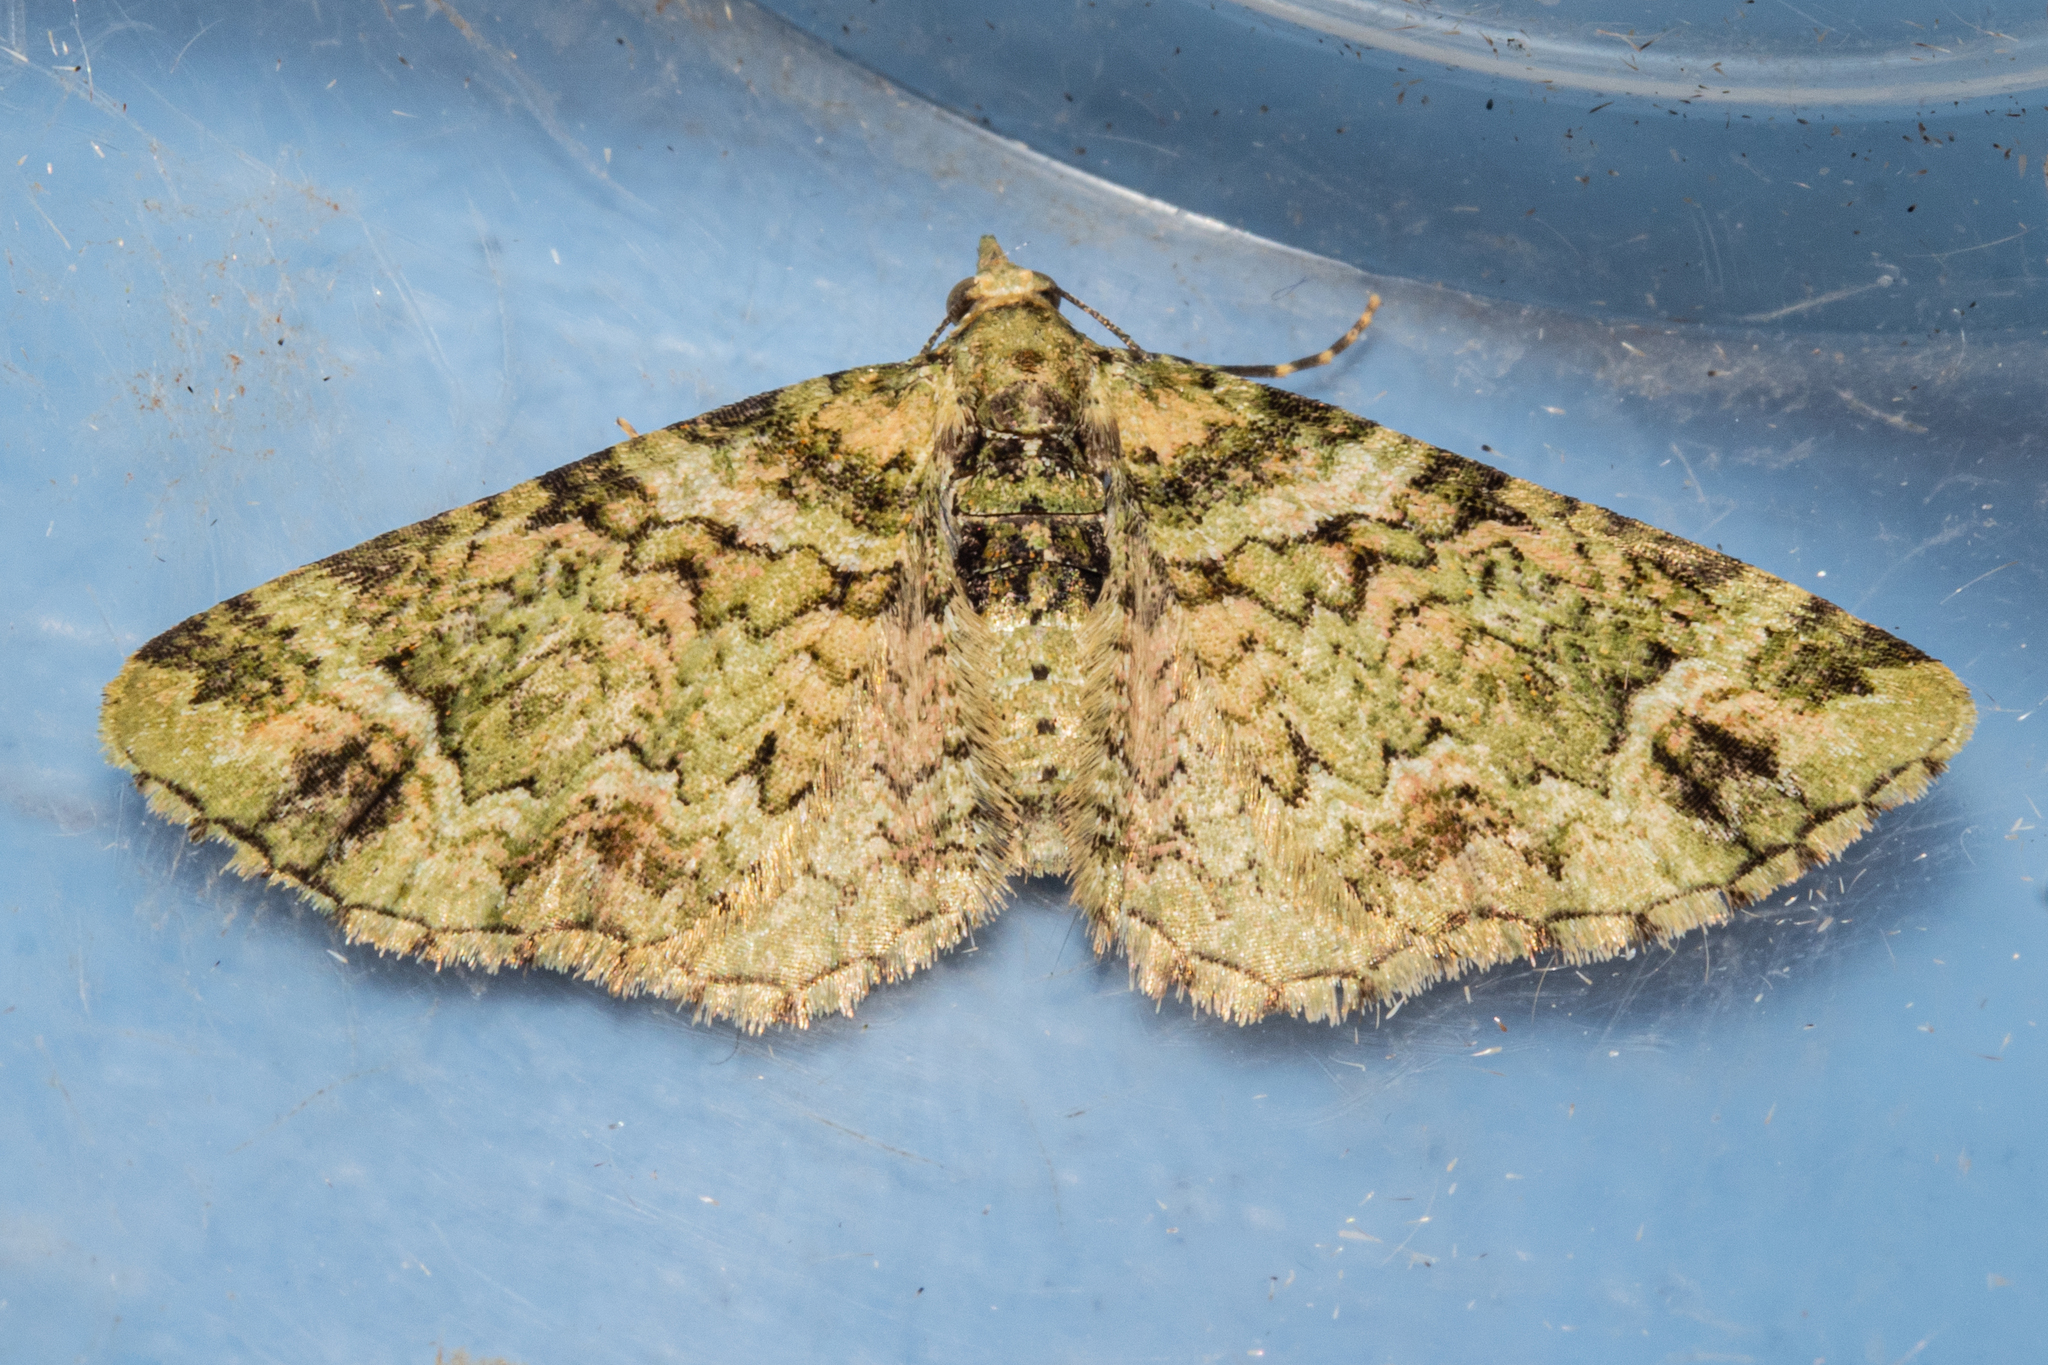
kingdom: Animalia
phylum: Arthropoda
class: Insecta
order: Lepidoptera
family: Geometridae
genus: Pasiphila
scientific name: Pasiphila urticae
